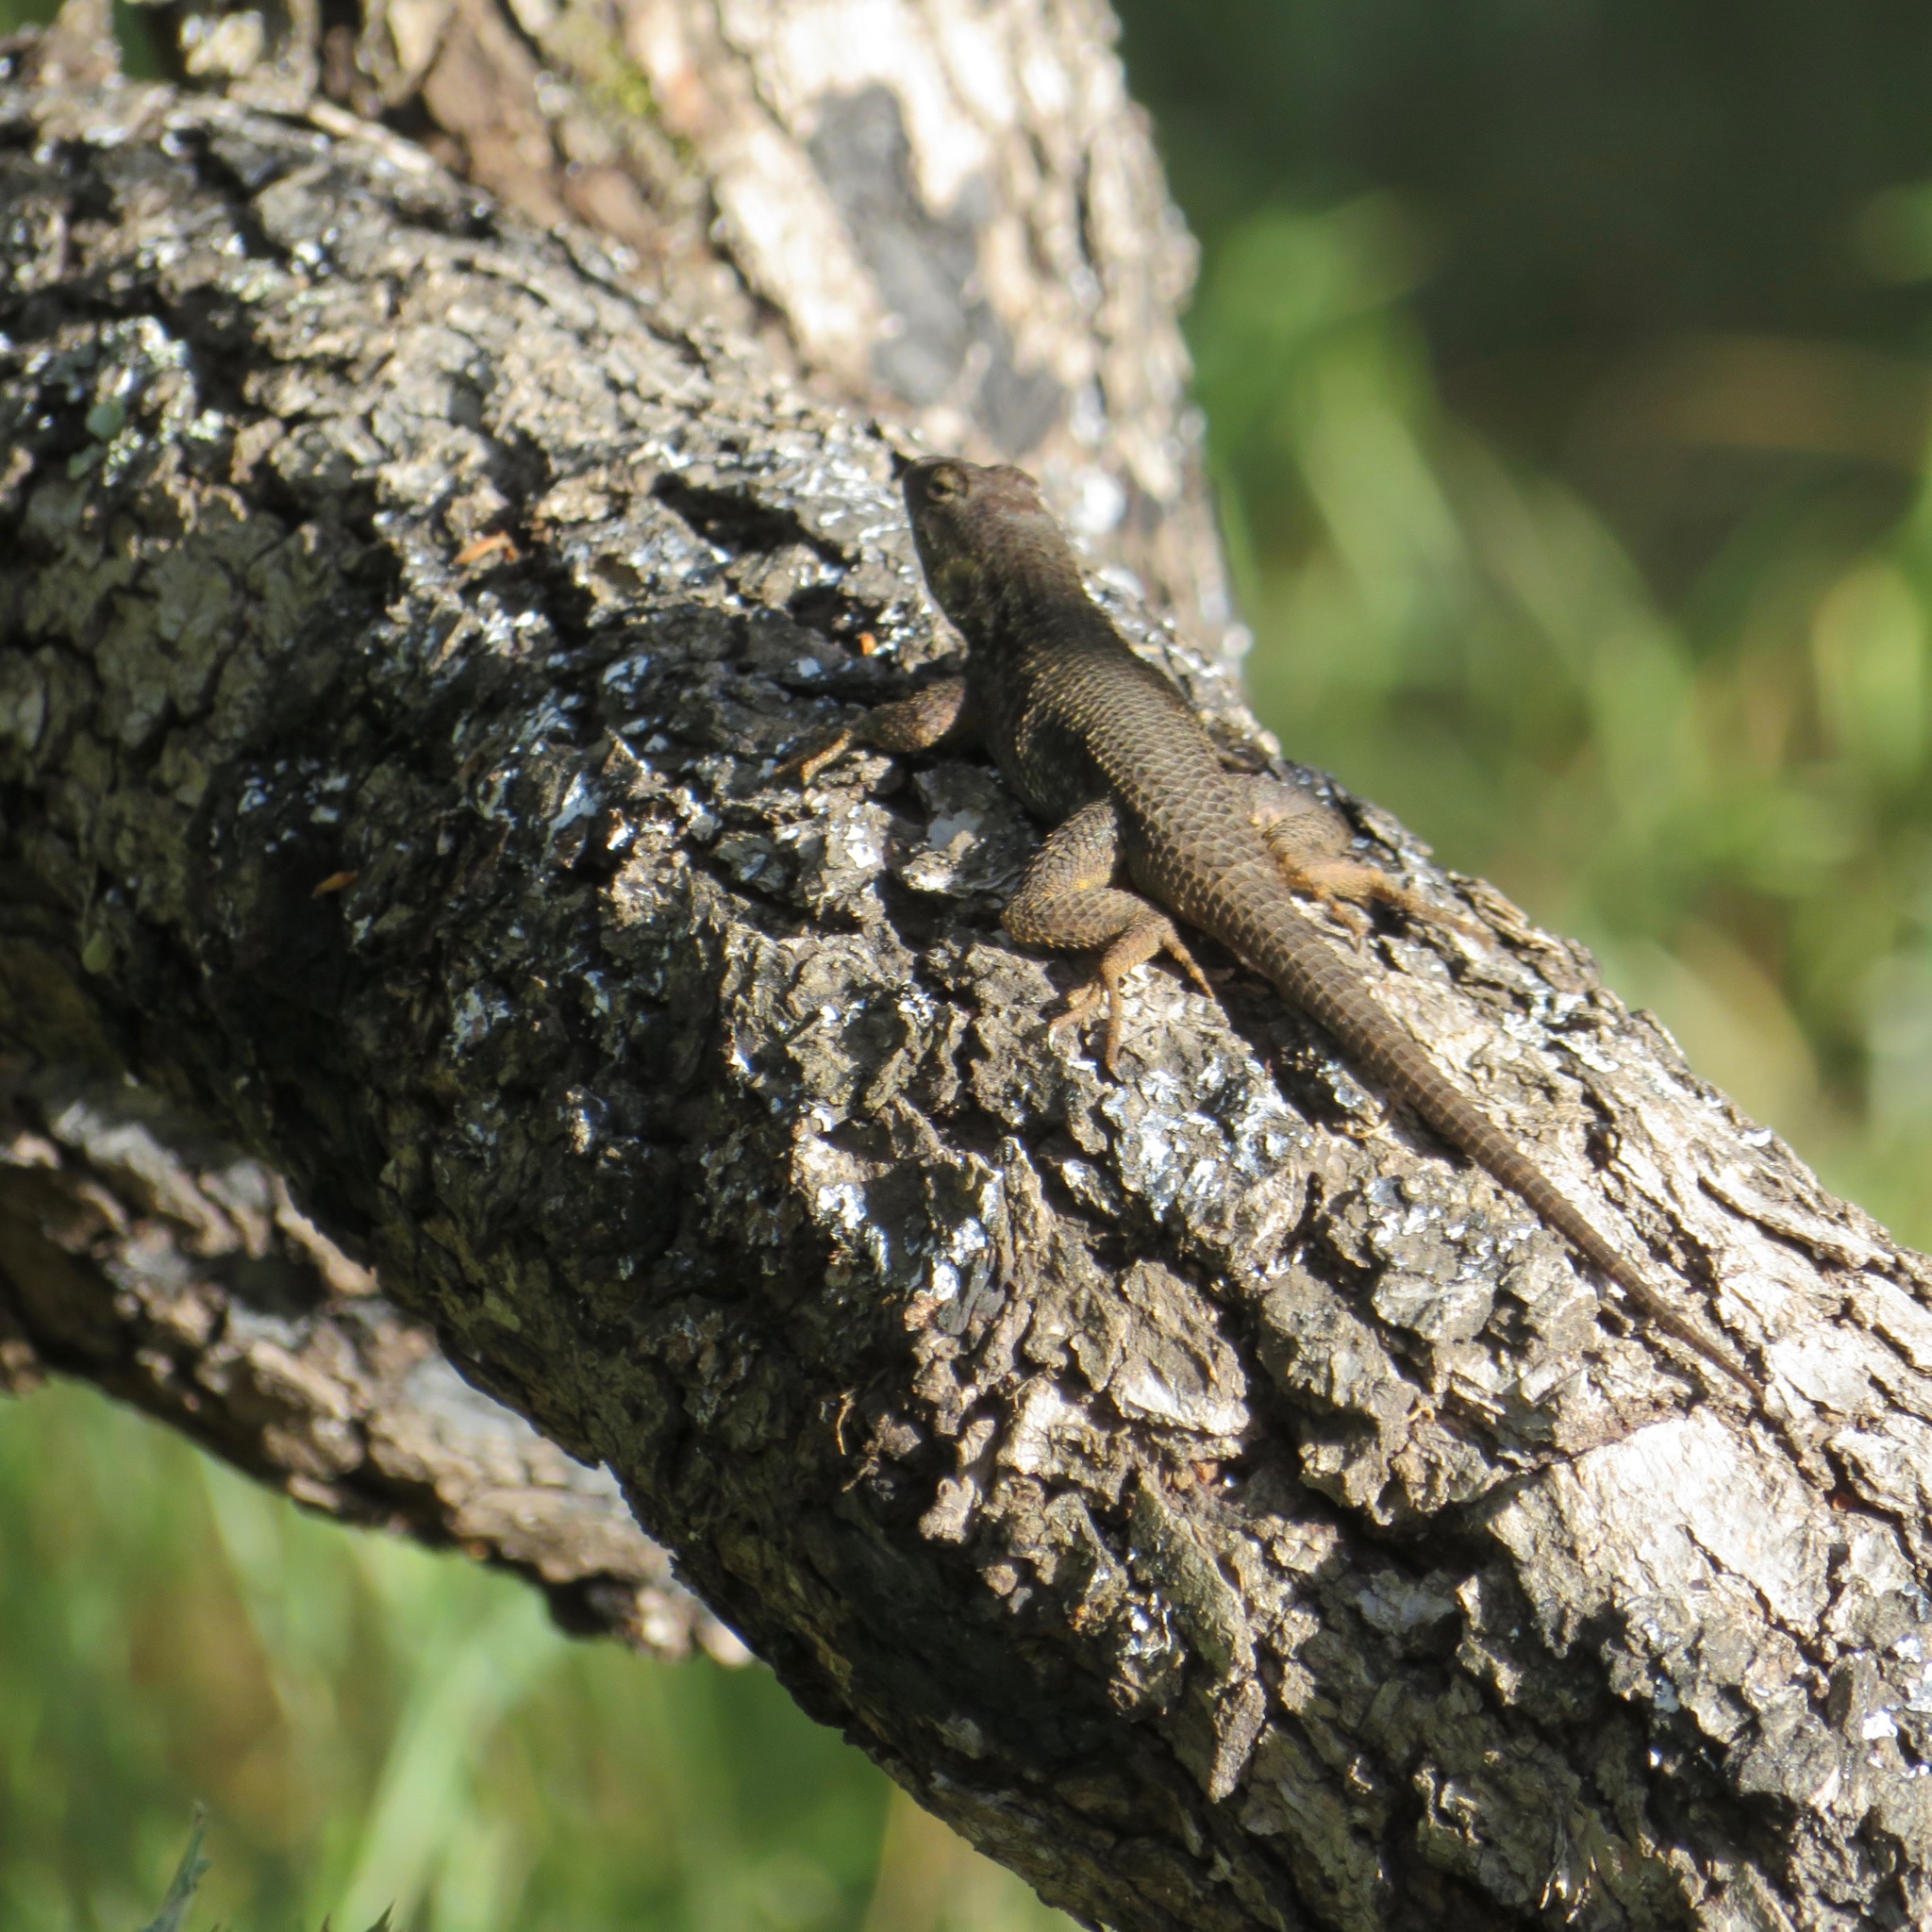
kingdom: Animalia
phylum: Chordata
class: Squamata
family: Phrynosomatidae
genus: Sceloporus
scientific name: Sceloporus occidentalis
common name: Western fence lizard
